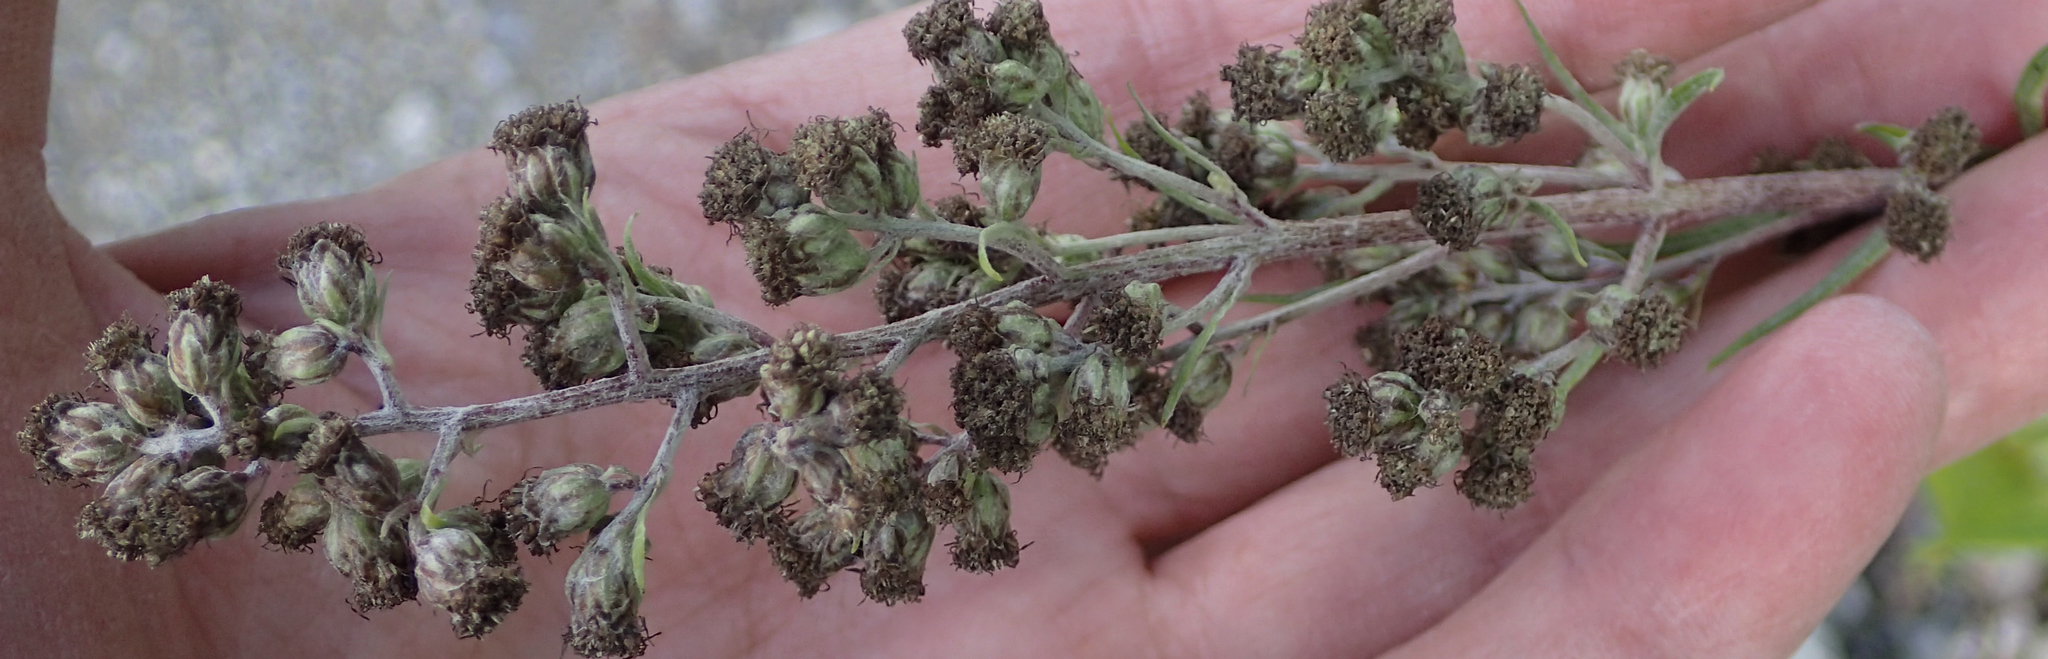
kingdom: Plantae
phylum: Tracheophyta
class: Magnoliopsida
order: Asterales
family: Asteraceae
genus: Artemisia
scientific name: Artemisia tilesii
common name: Aleutian mugwort
